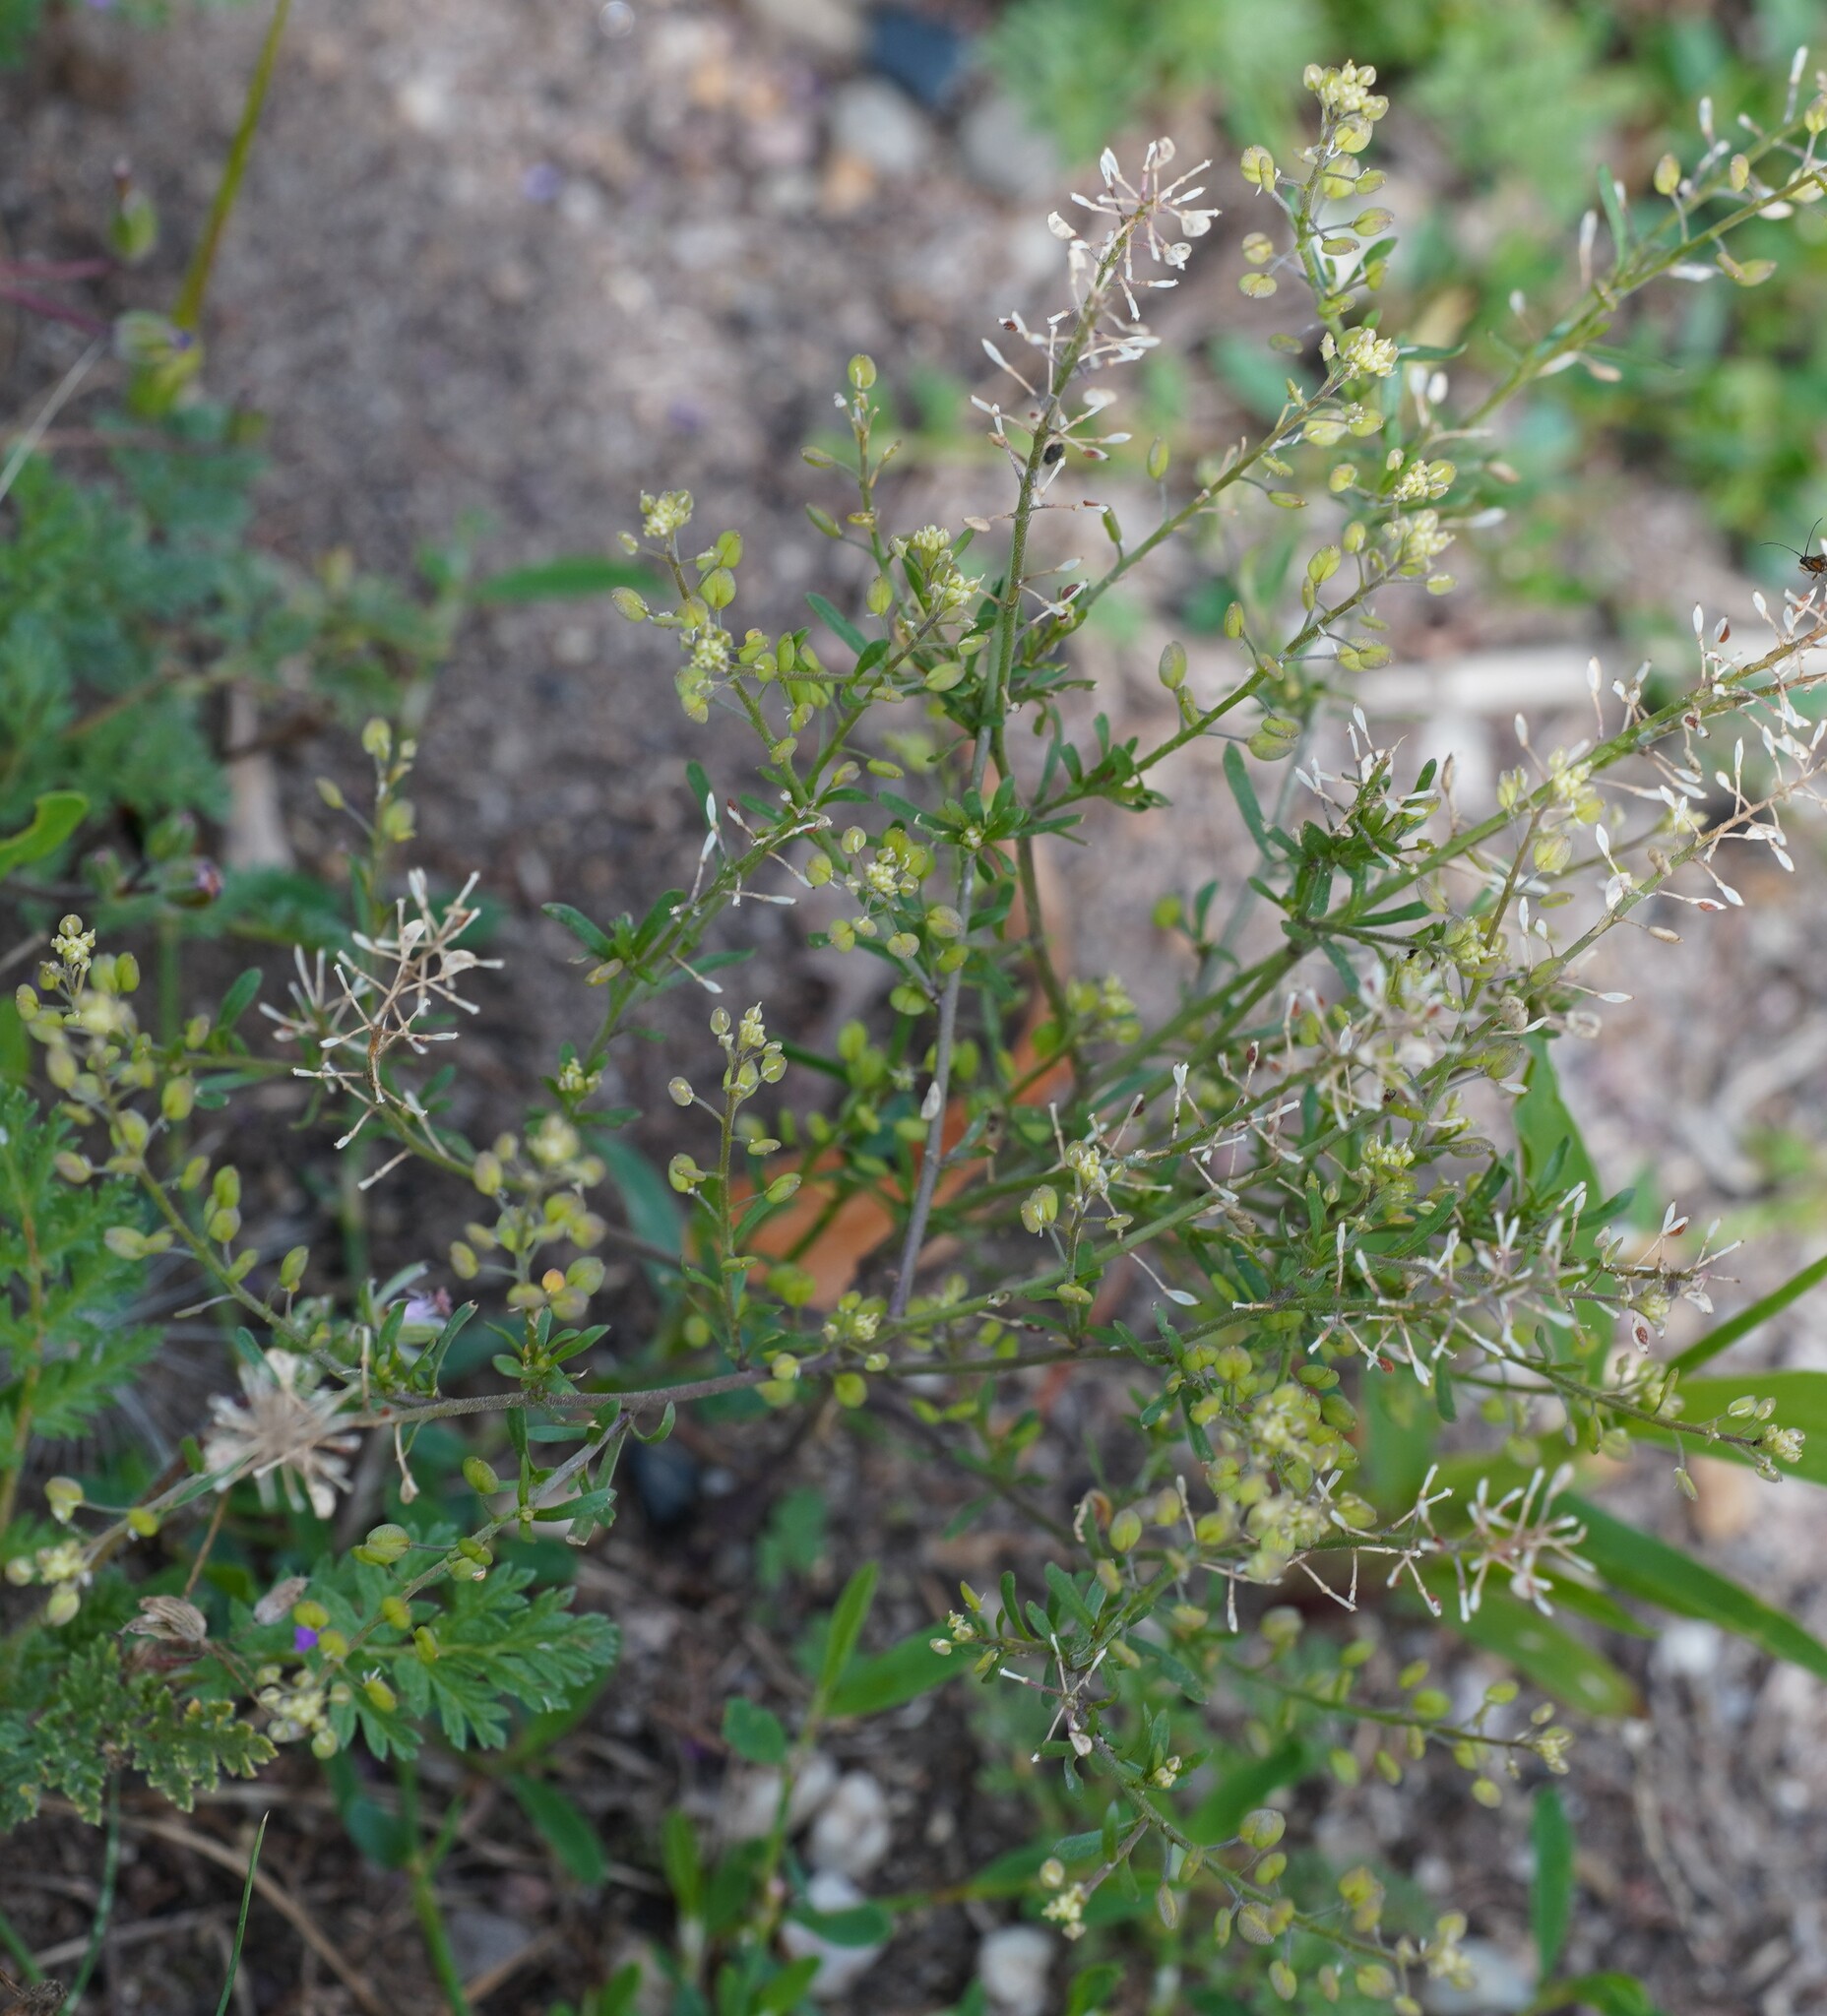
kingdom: Plantae
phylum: Tracheophyta
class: Magnoliopsida
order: Brassicales
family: Brassicaceae
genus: Lepidium
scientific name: Lepidium ruderale
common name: Narrow-leaved pepperwort
